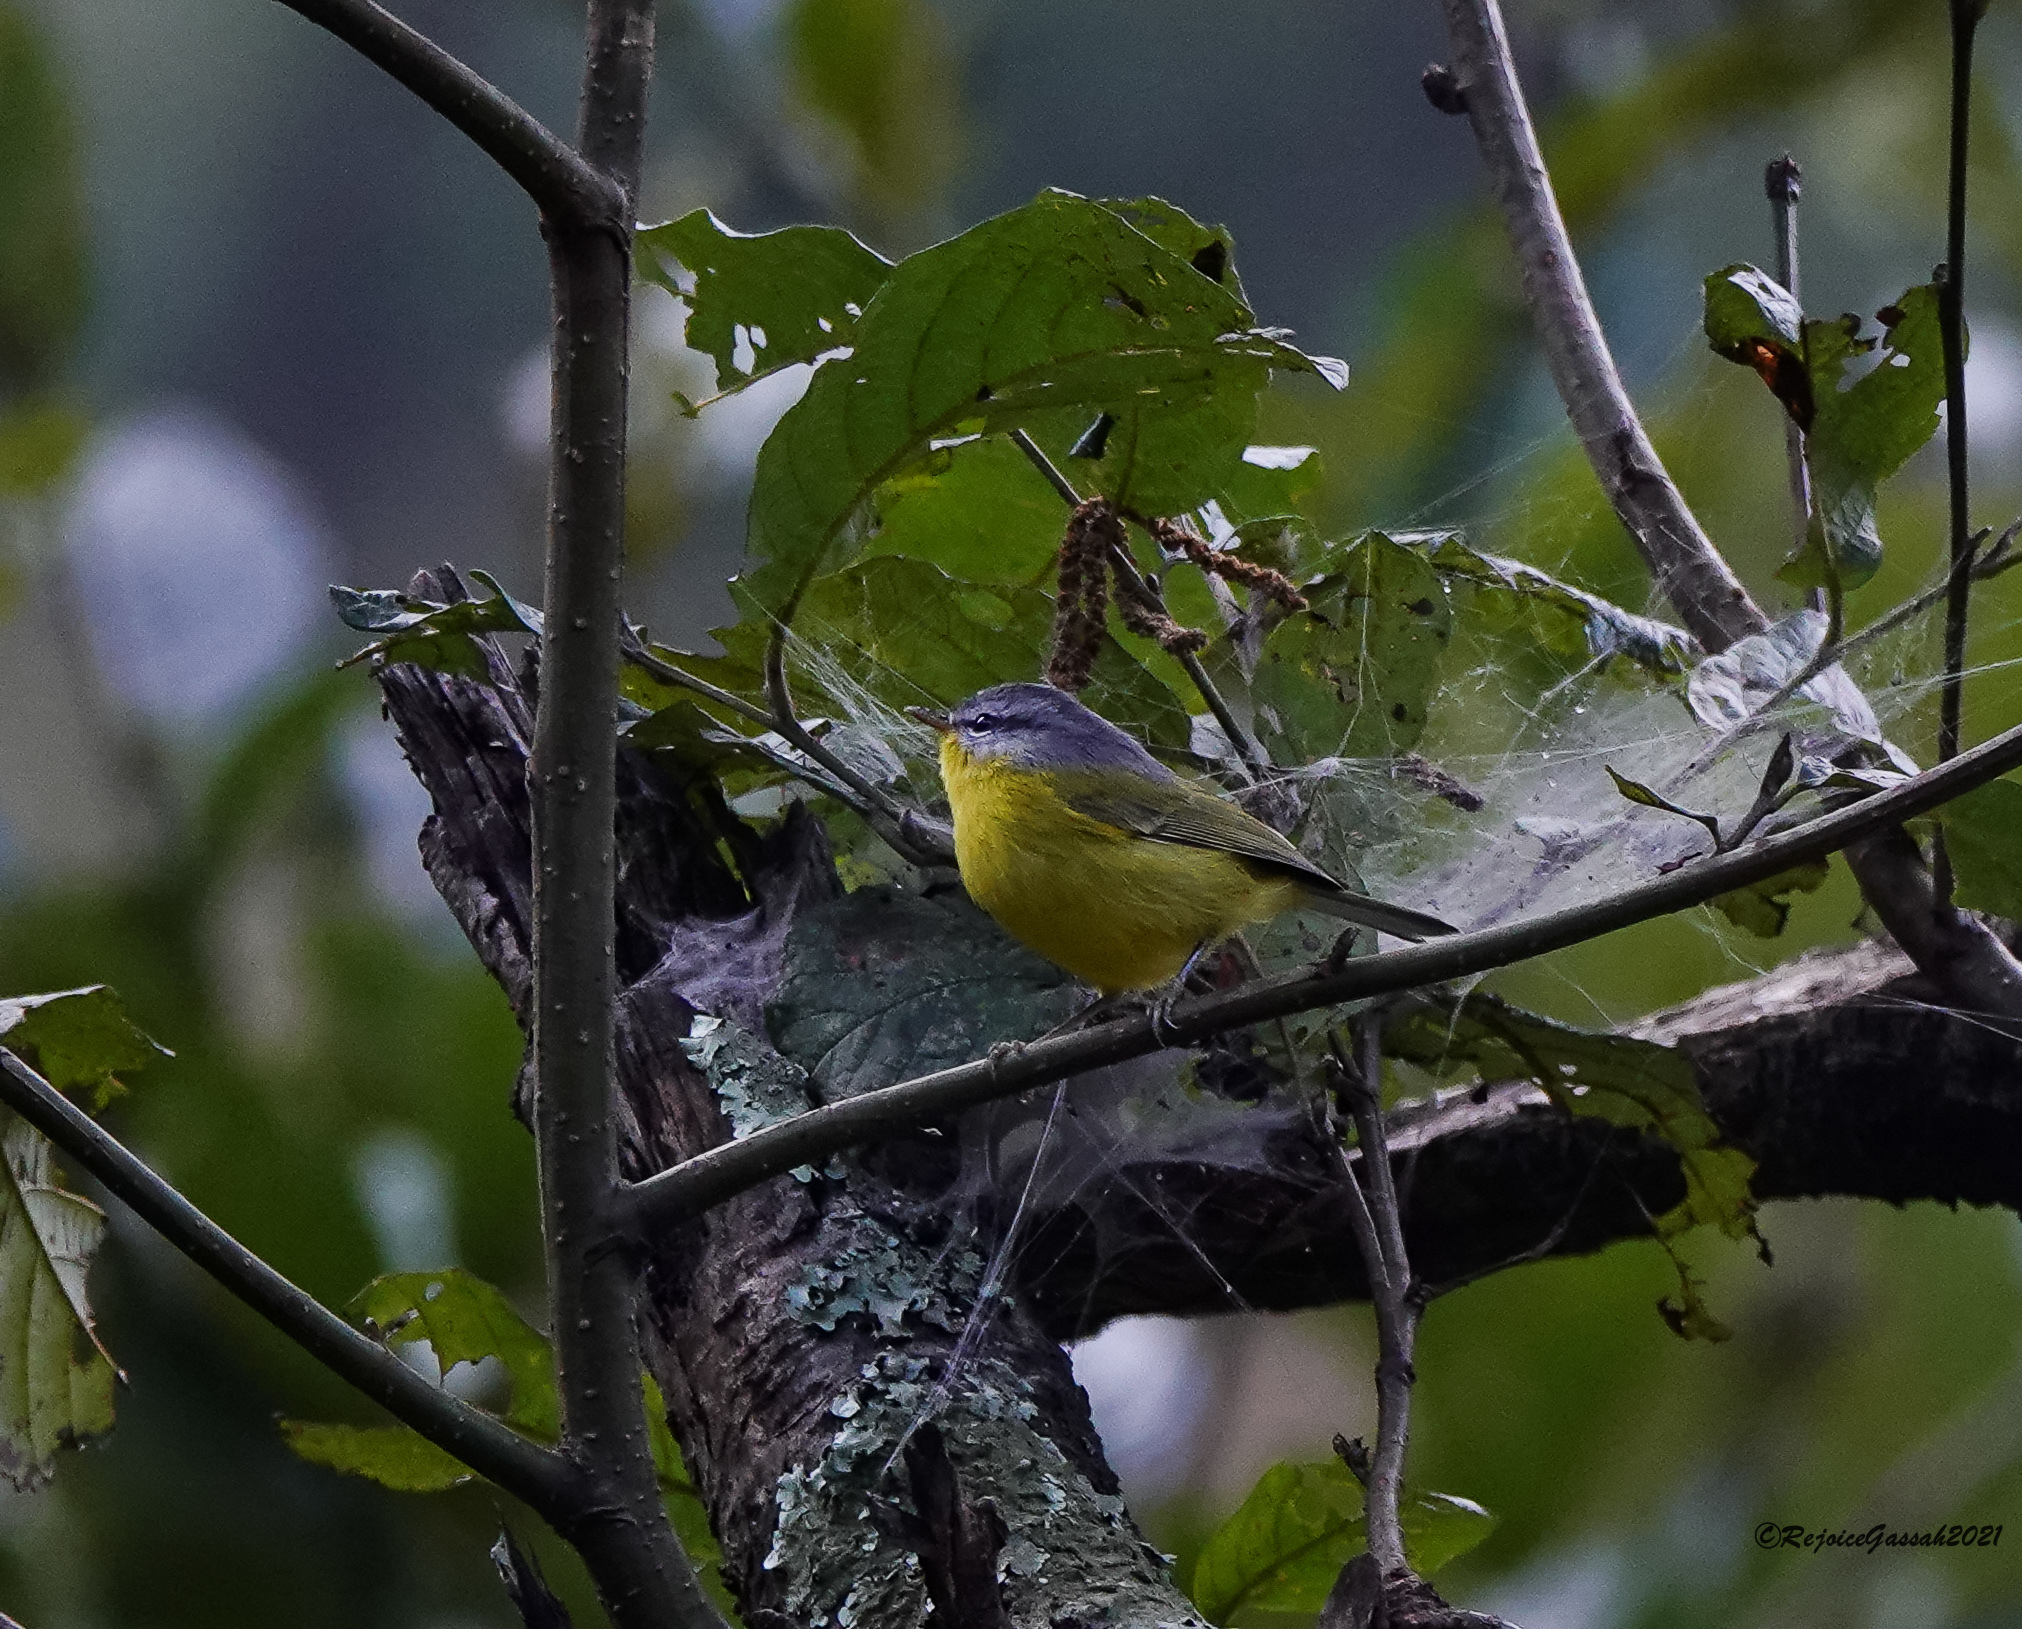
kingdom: Animalia
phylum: Chordata
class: Aves
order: Passeriformes
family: Phylloscopidae
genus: Phylloscopus
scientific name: Phylloscopus xanthoschistos
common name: Grey-hooded warbler
